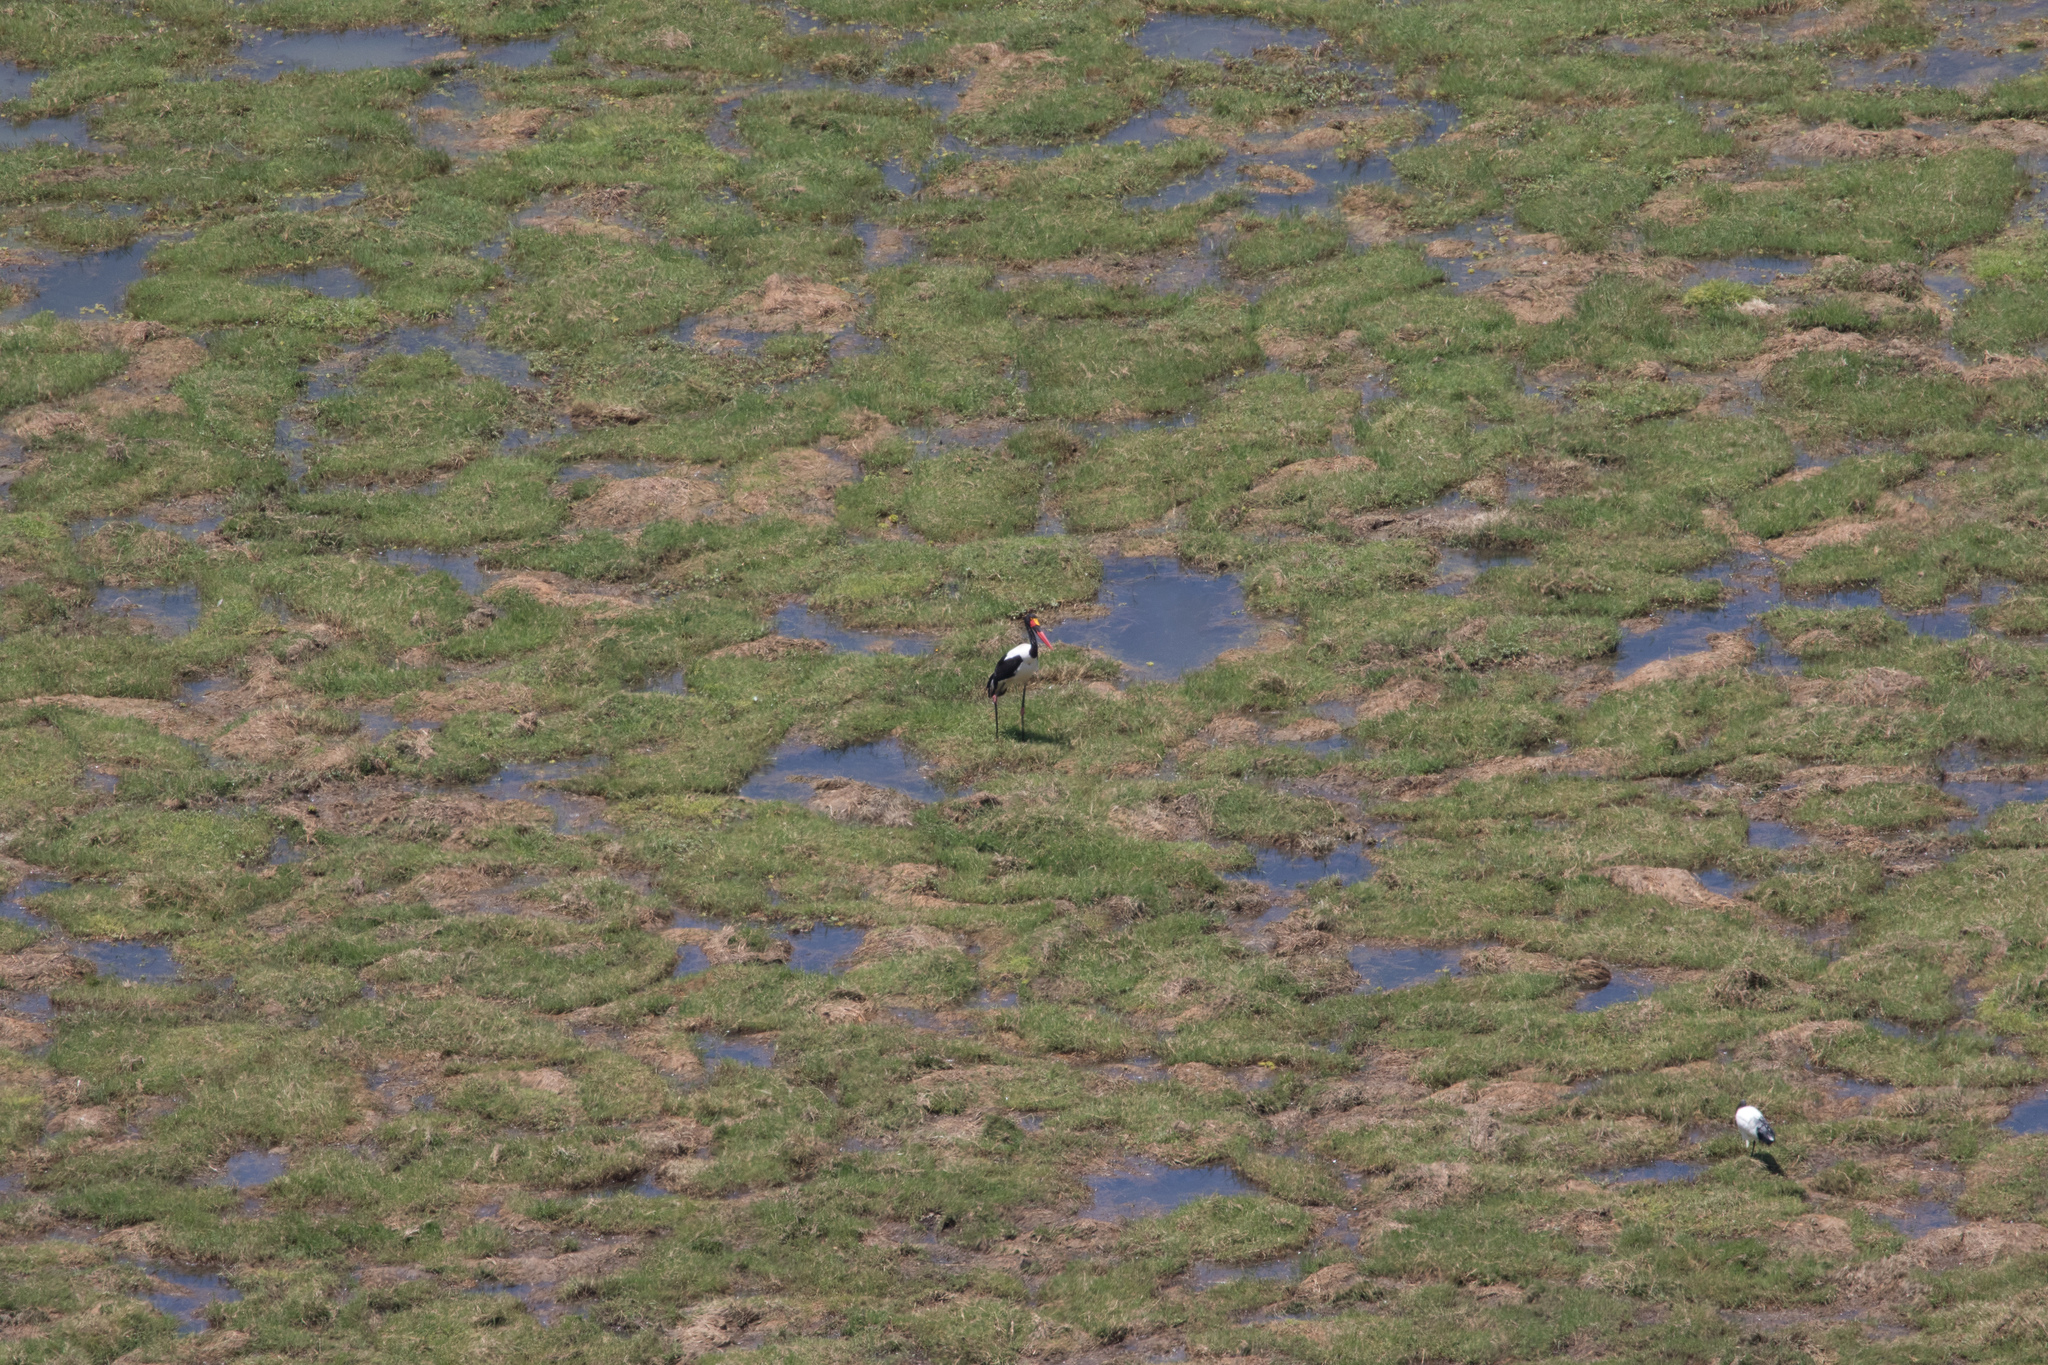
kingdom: Animalia
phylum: Chordata
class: Aves
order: Ciconiiformes
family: Ciconiidae
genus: Ephippiorhynchus
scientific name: Ephippiorhynchus senegalensis
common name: Saddle-billed stork
